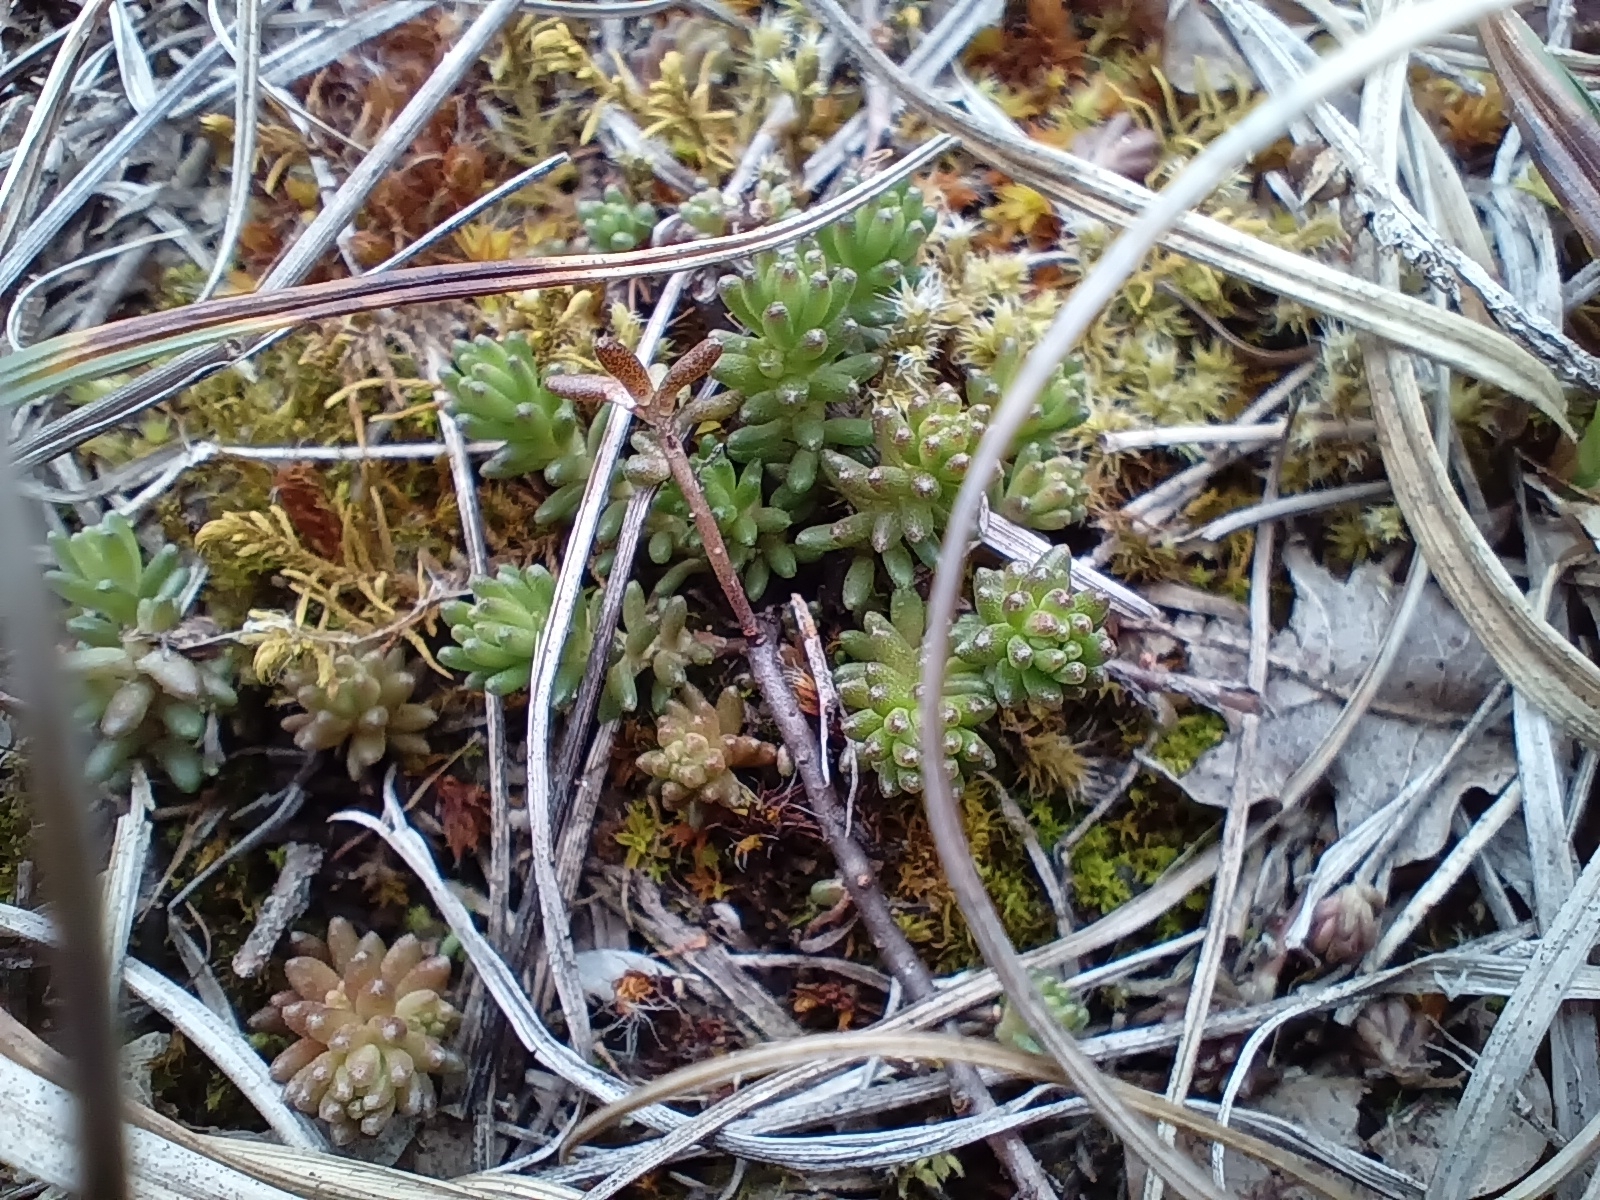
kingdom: Plantae
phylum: Tracheophyta
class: Magnoliopsida
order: Saxifragales
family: Crassulaceae
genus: Sedum
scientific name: Sedum sexangulare
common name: Tasteless stonecrop
